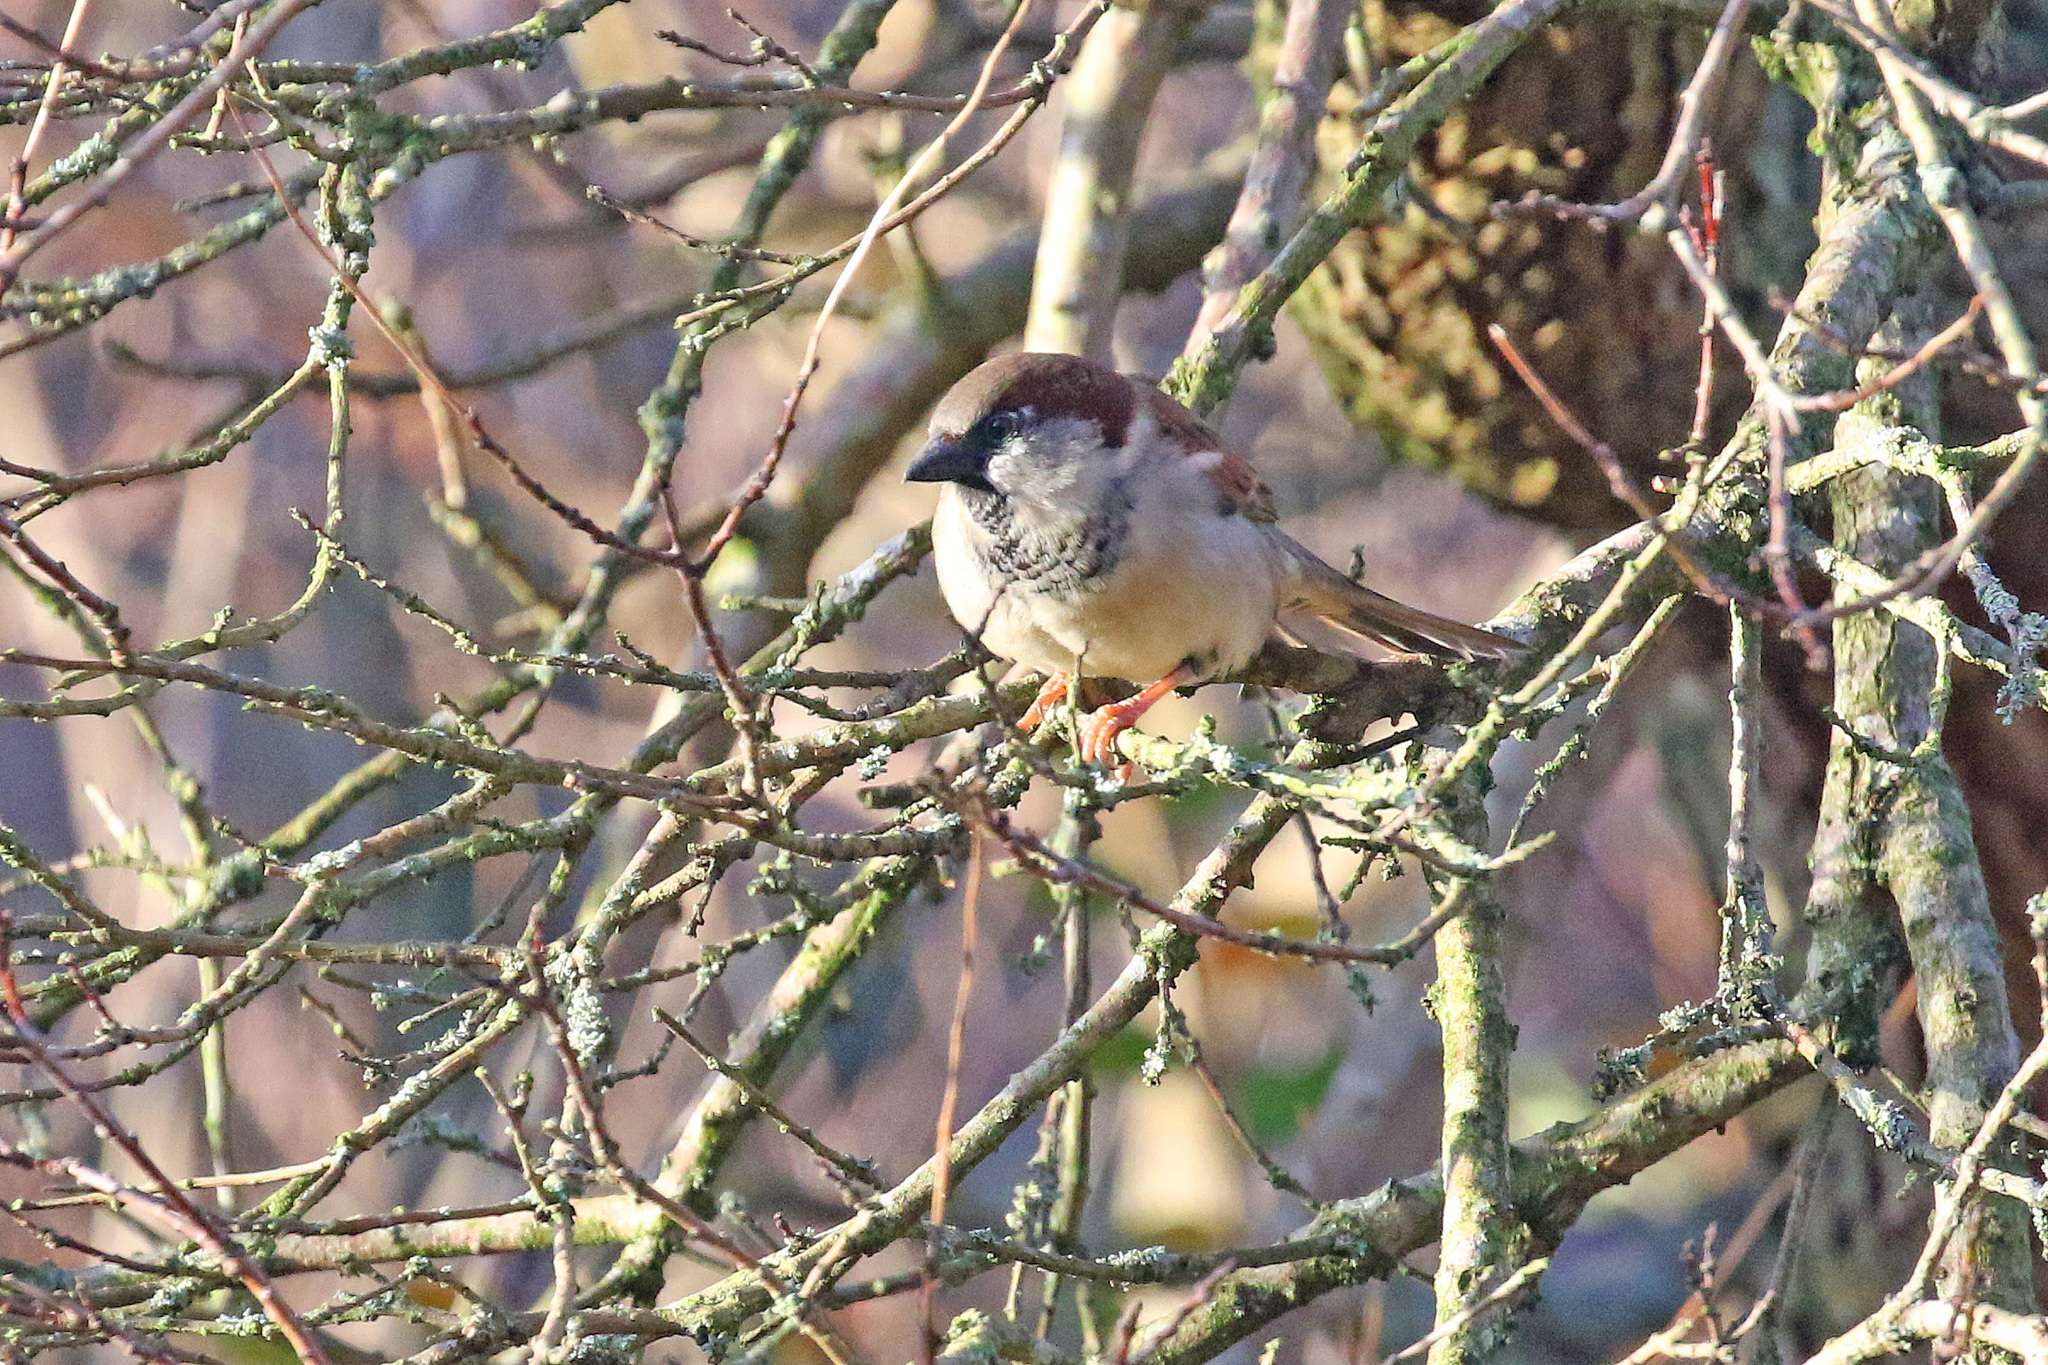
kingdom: Animalia
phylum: Chordata
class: Aves
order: Passeriformes
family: Passeridae
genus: Passer
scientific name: Passer domesticus
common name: House sparrow
